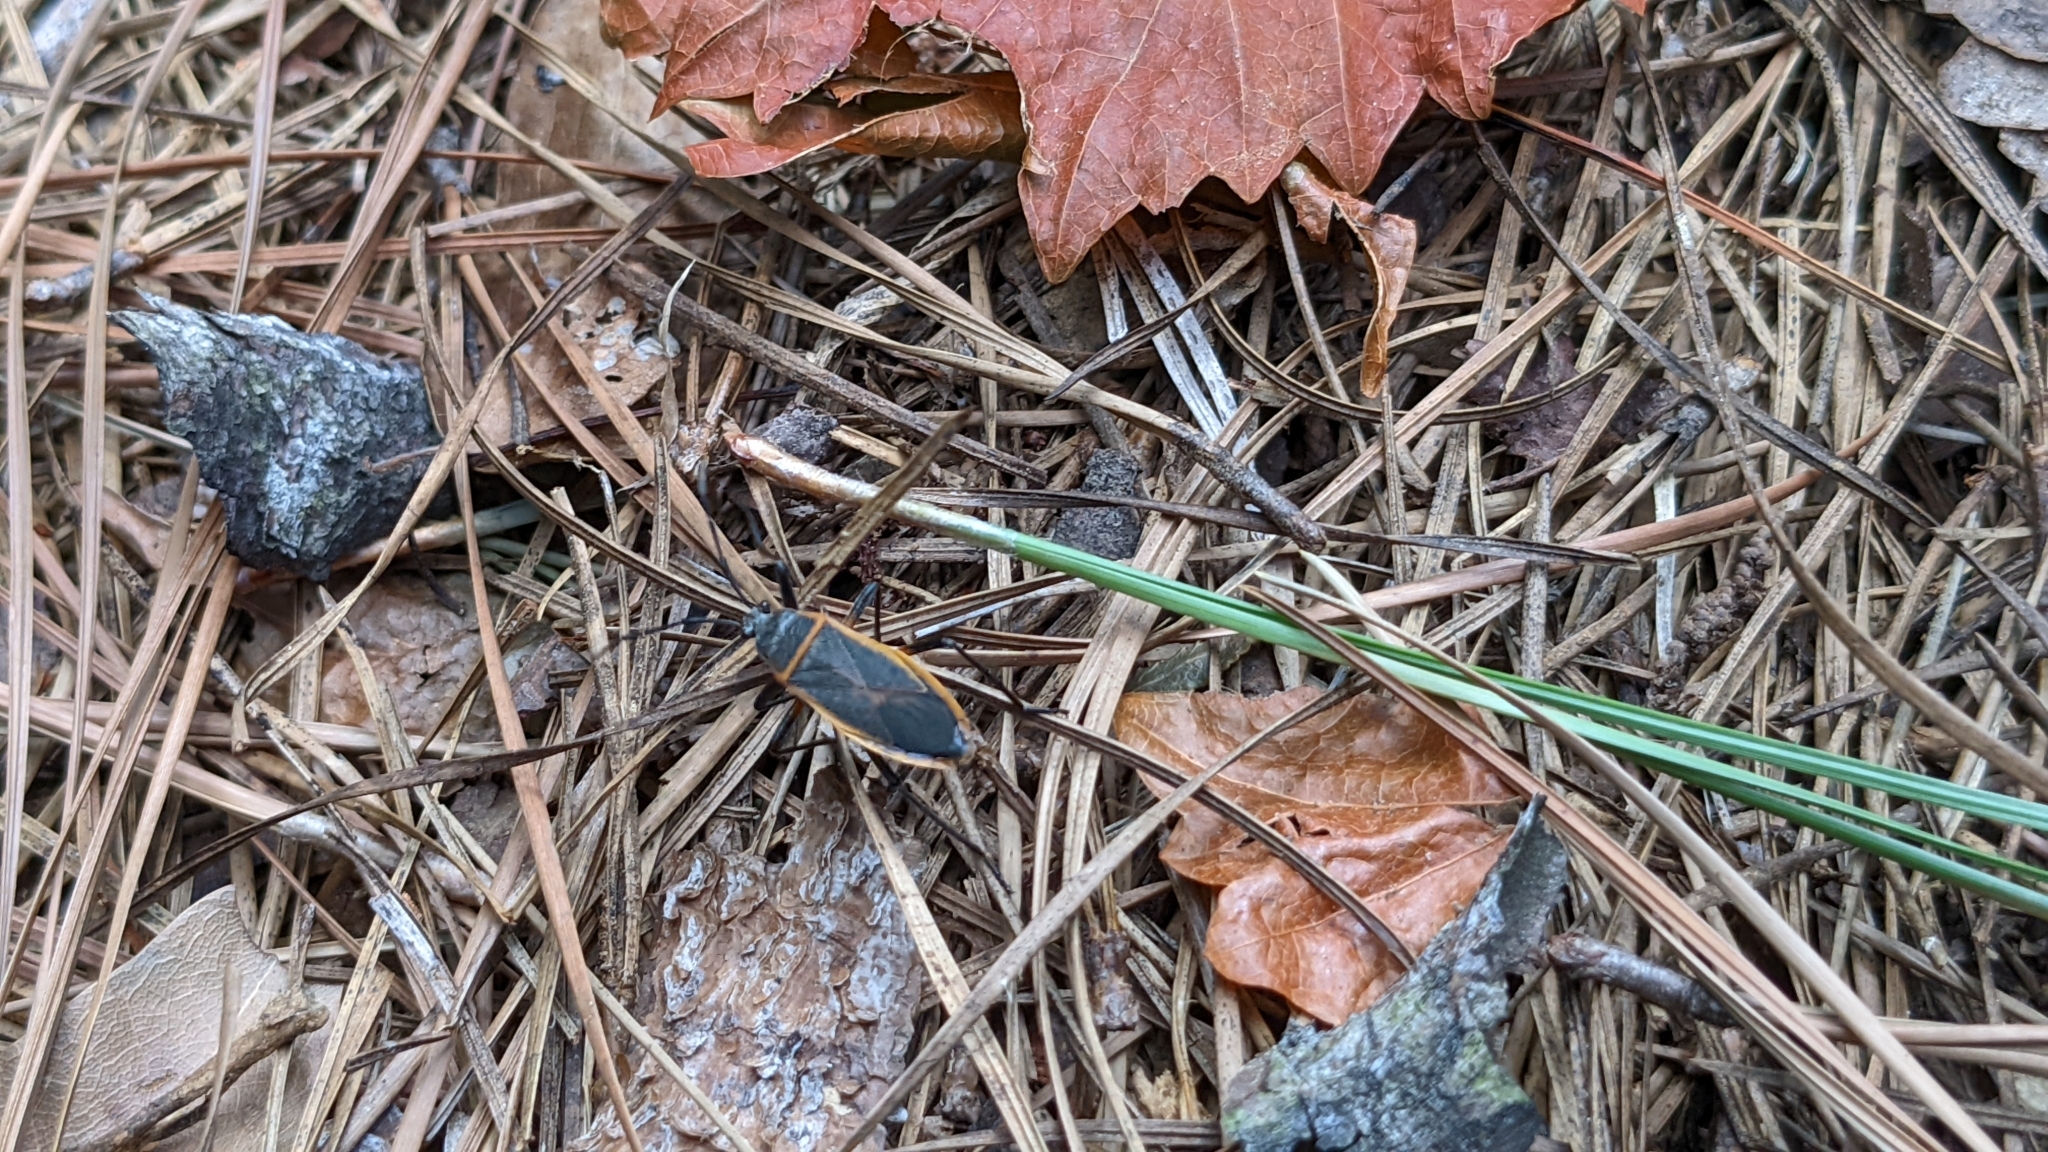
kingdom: Animalia
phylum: Arthropoda
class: Insecta
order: Hemiptera
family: Largidae
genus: Largus
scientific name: Largus succinctus
